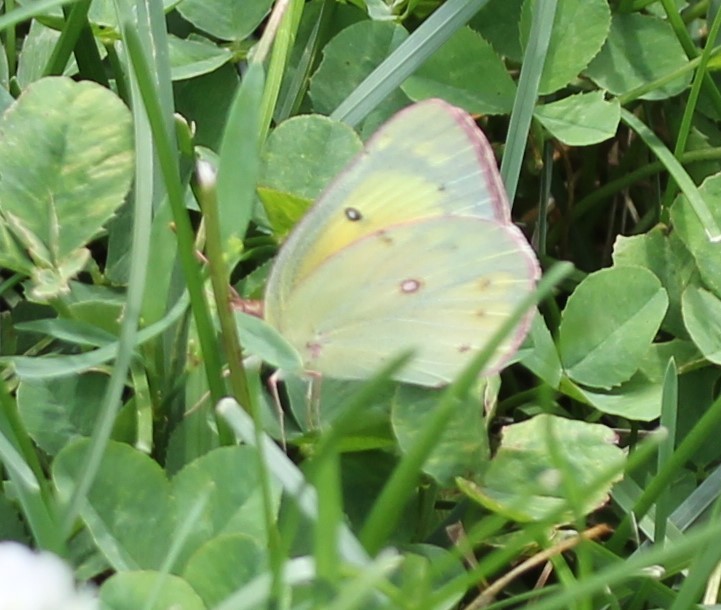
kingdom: Animalia
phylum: Arthropoda
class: Insecta
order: Lepidoptera
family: Pieridae
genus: Colias
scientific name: Colias eurytheme
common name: Alfalfa butterfly
